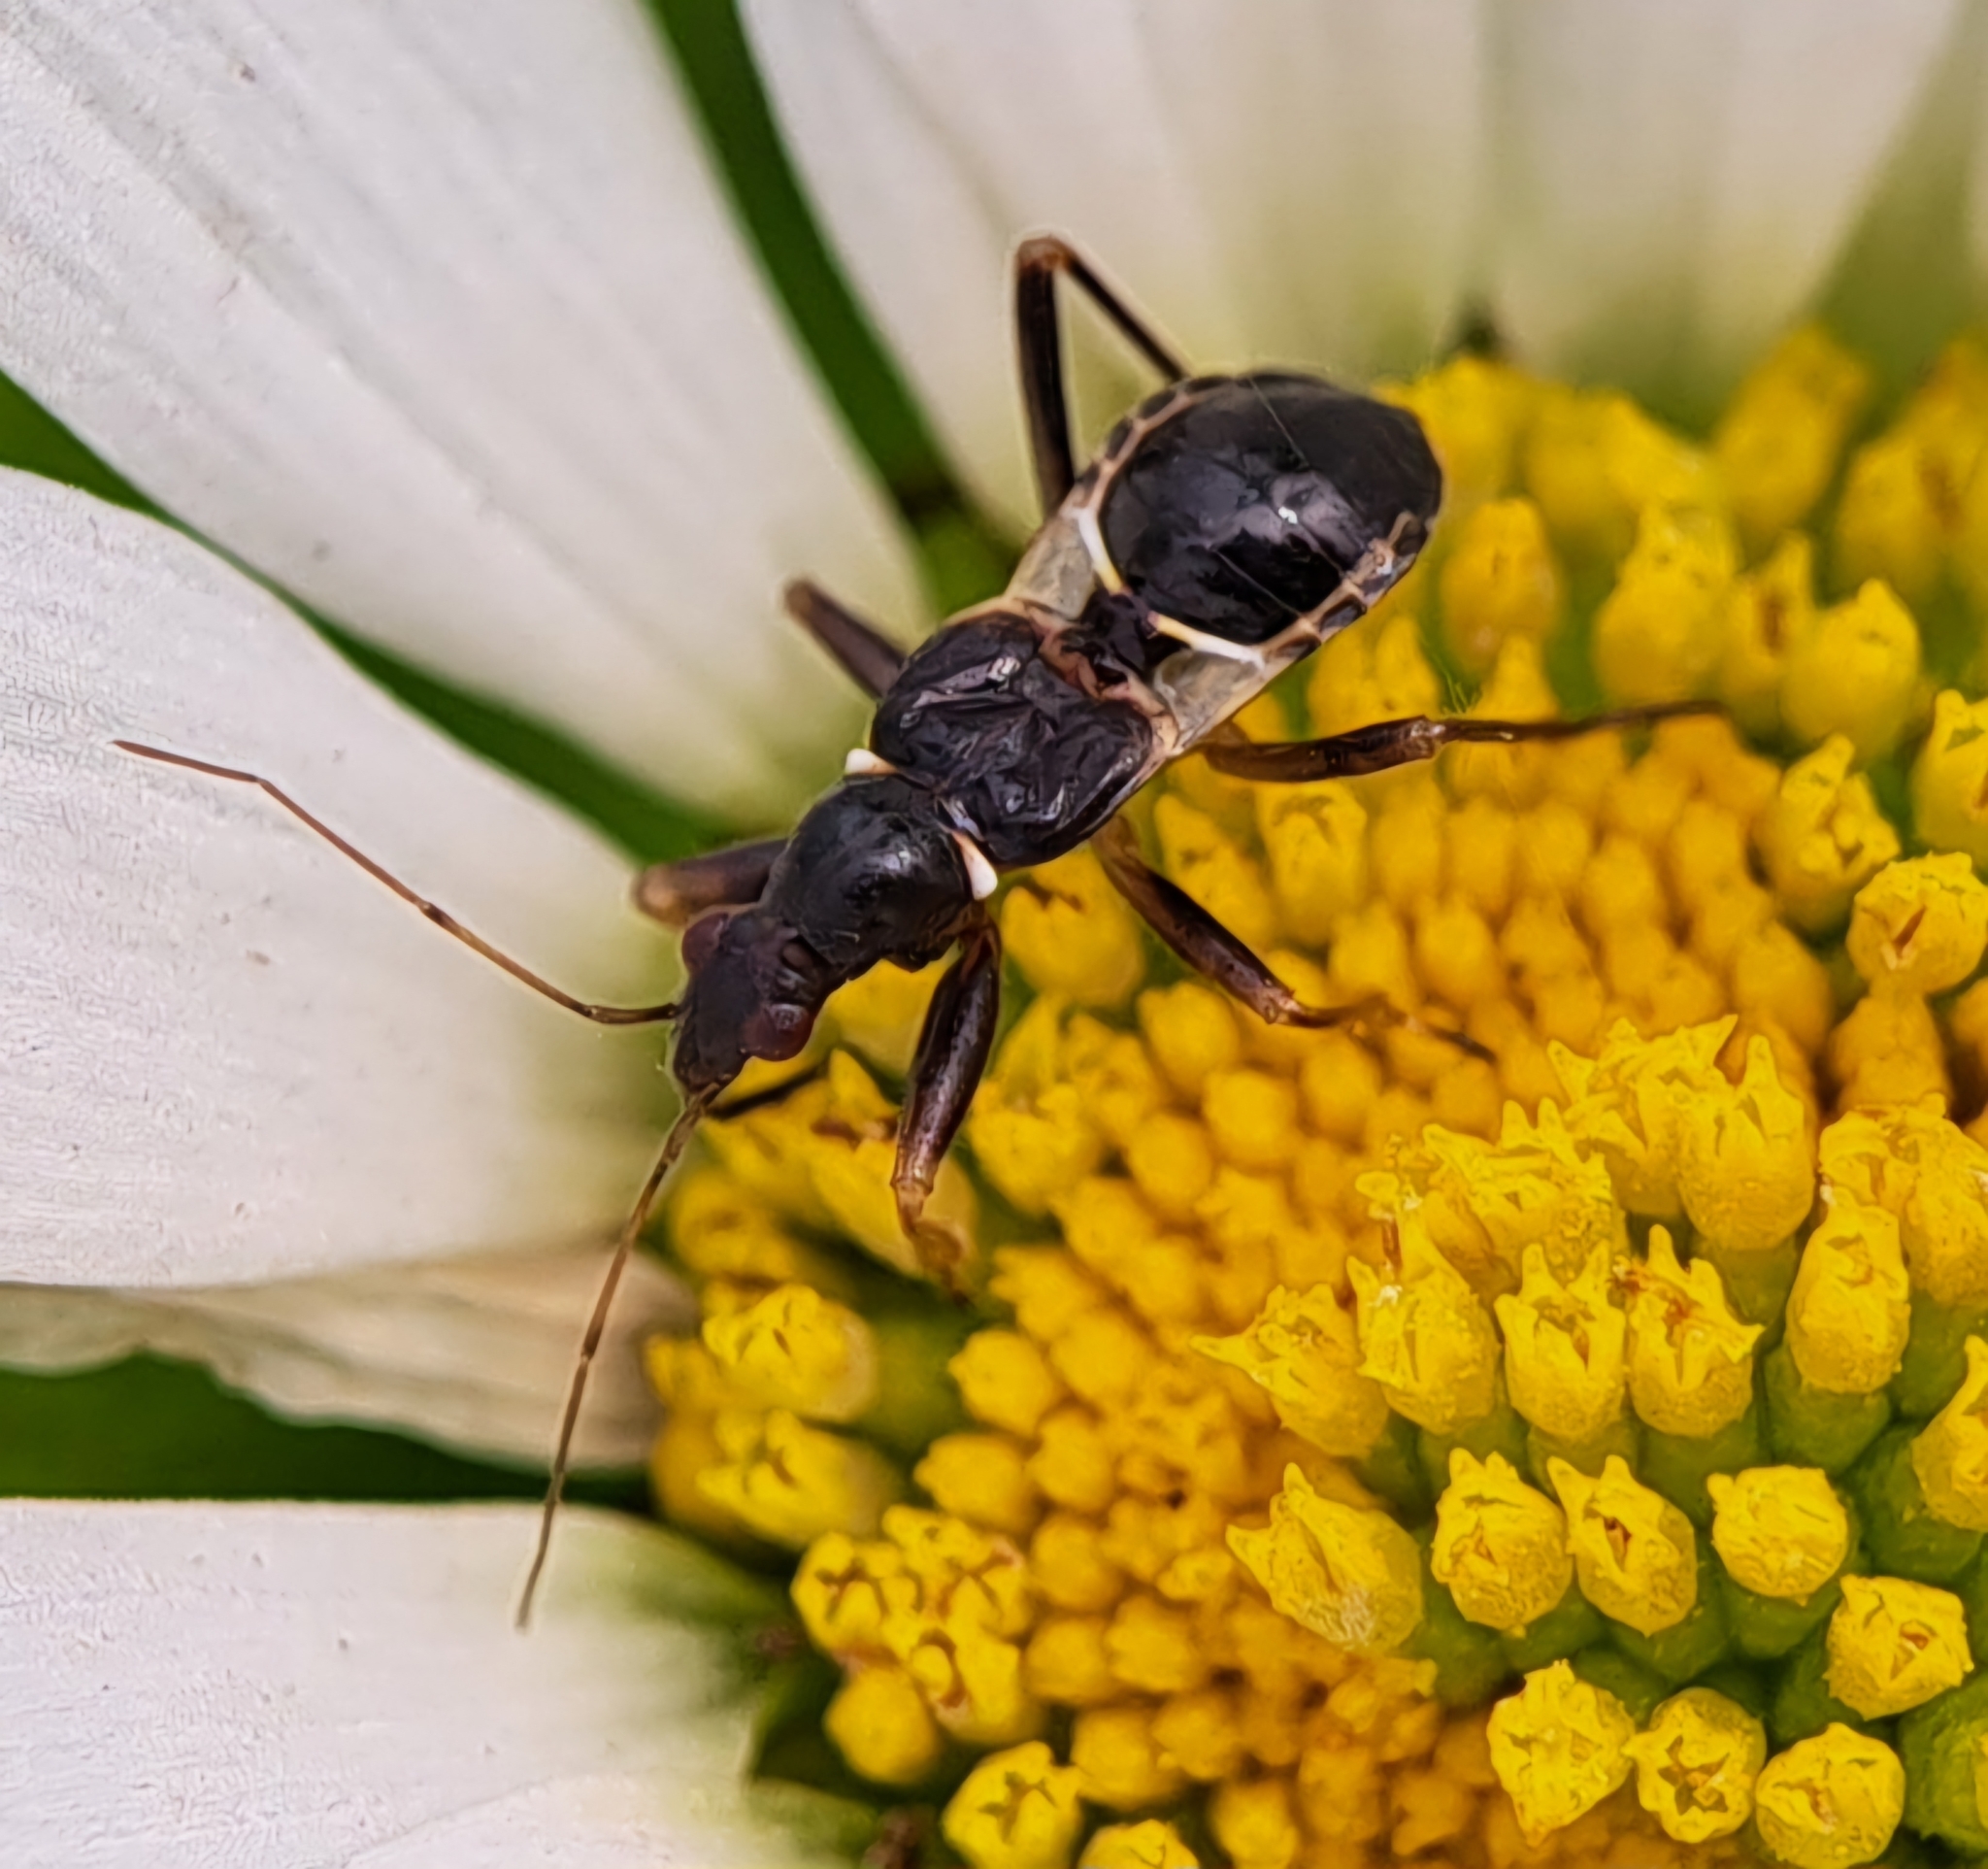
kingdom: Animalia
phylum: Arthropoda
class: Insecta
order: Hemiptera
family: Nabidae
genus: Himacerus
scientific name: Himacerus mirmicoides
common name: Ant damsel bug
